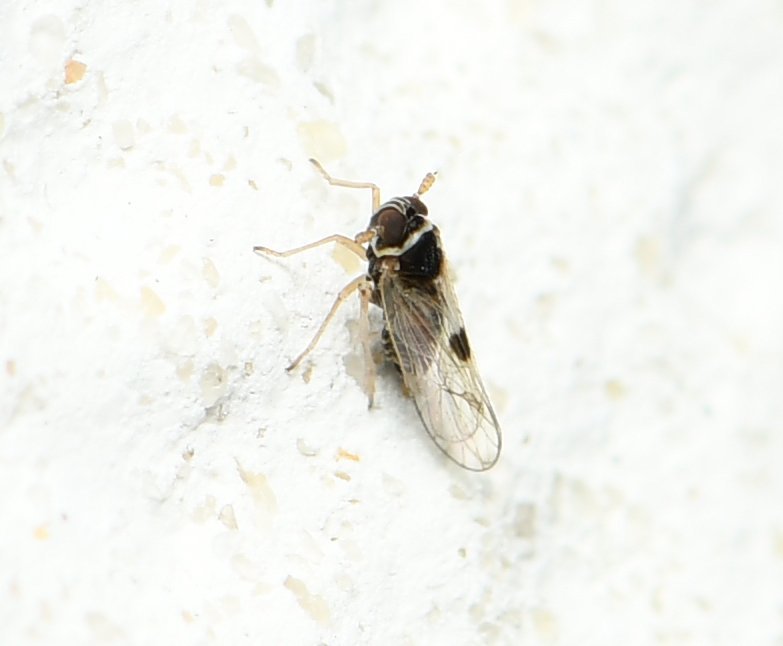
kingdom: Animalia
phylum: Arthropoda
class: Insecta
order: Hemiptera
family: Delphacidae
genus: Chionomus
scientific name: Chionomus
